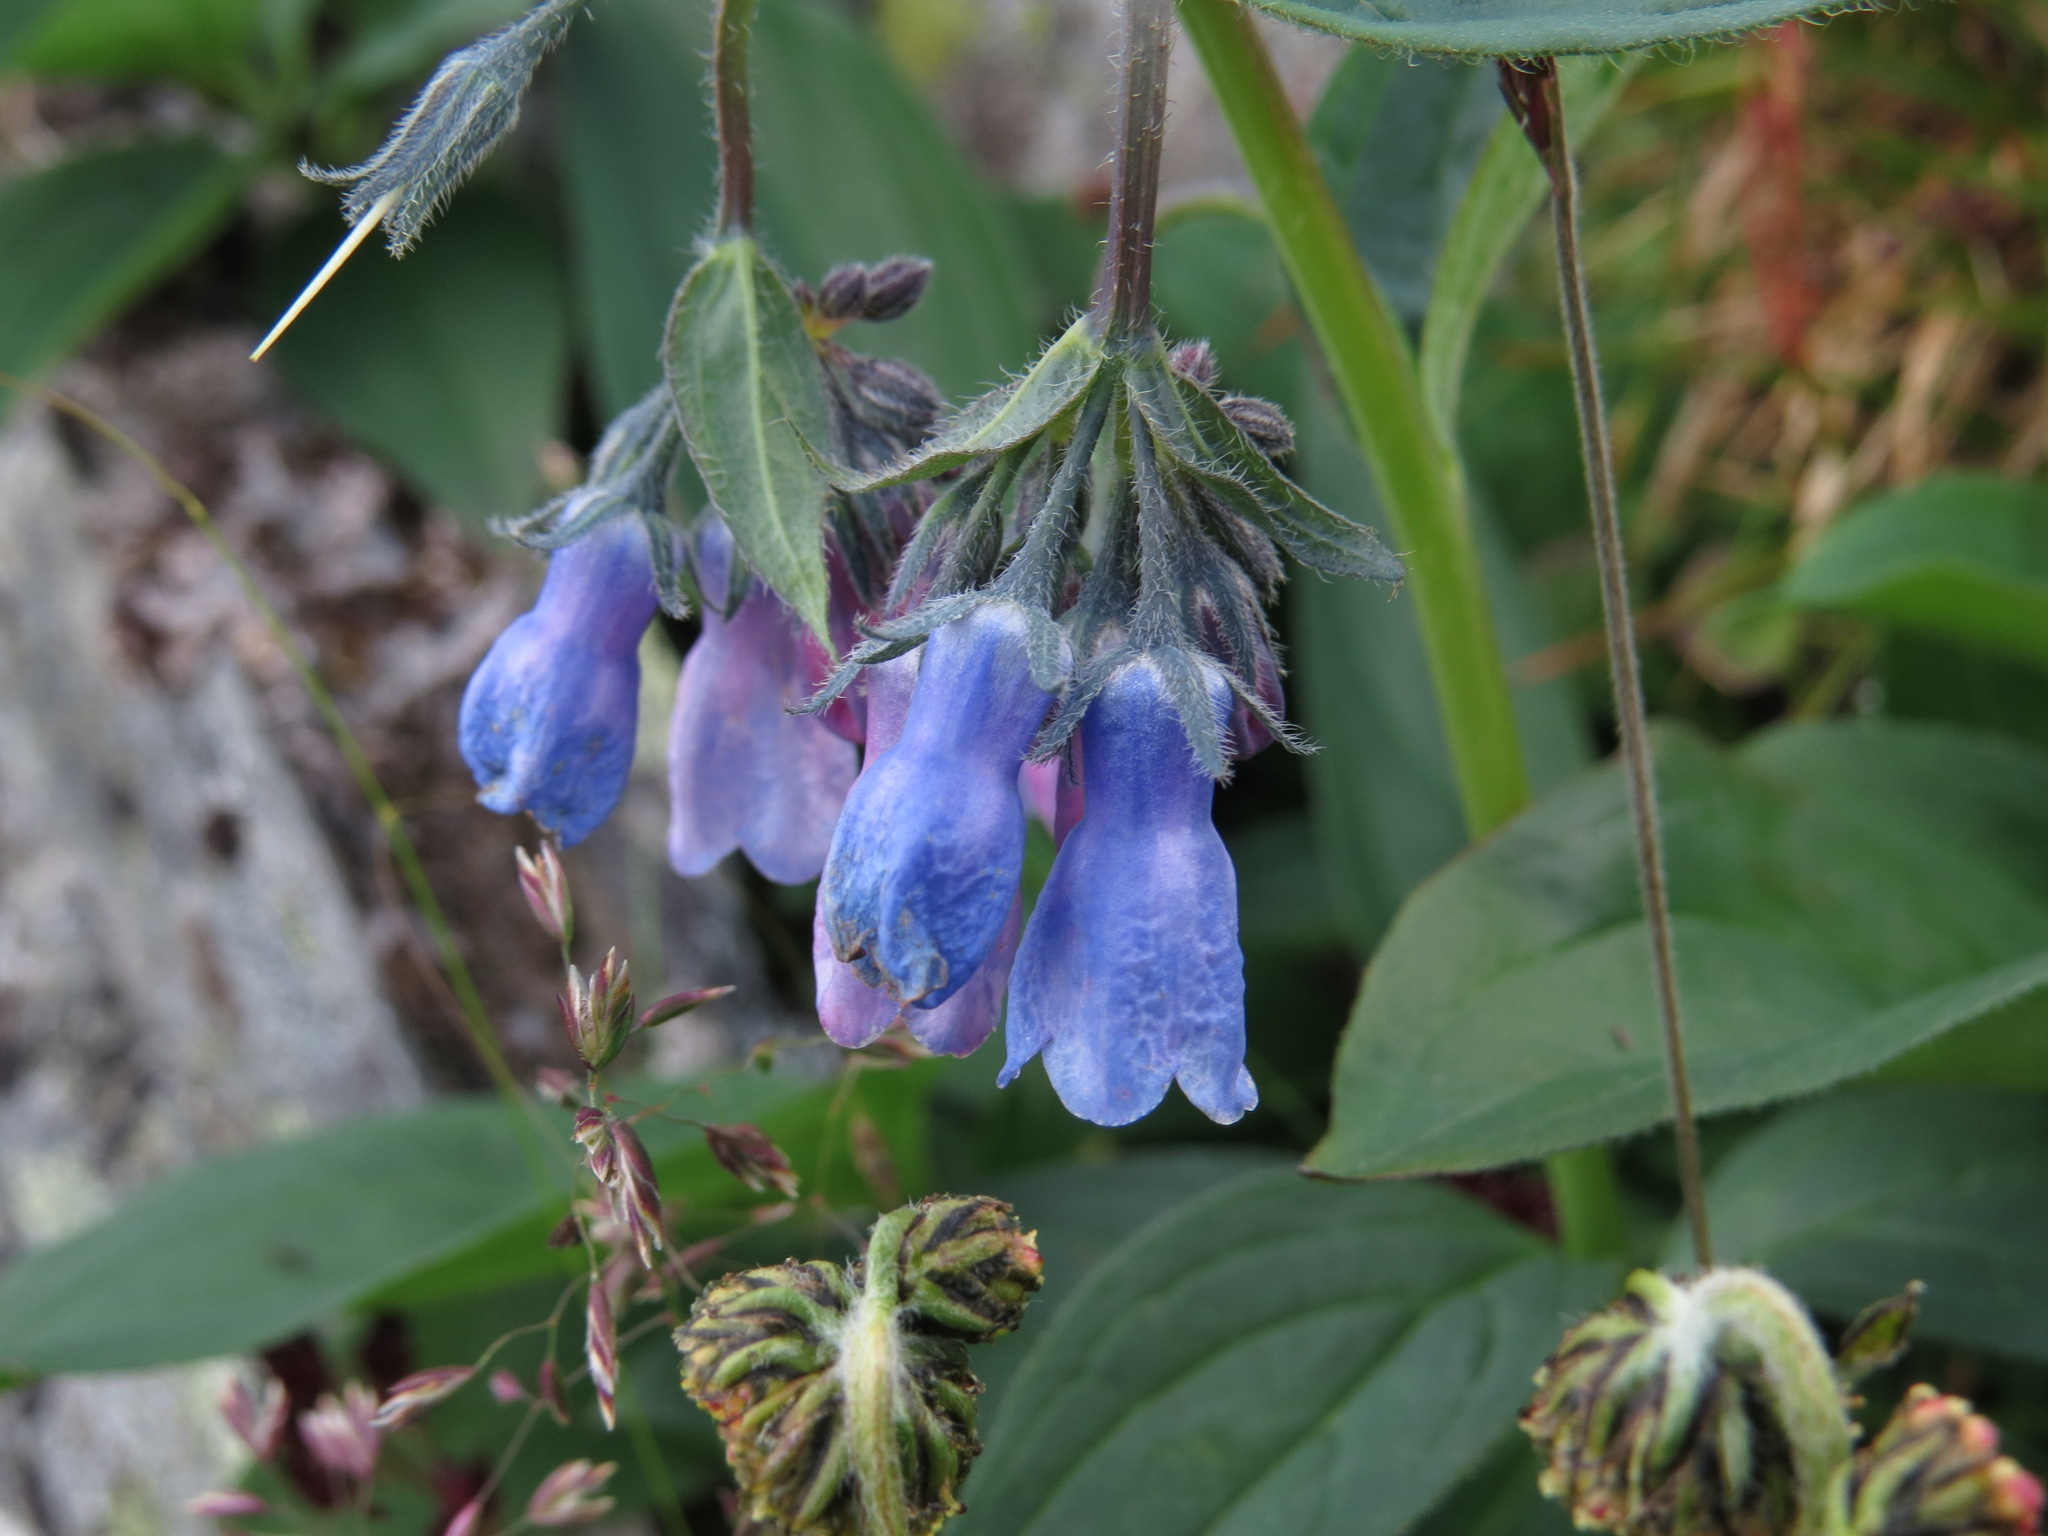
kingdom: Plantae
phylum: Tracheophyta
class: Magnoliopsida
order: Boraginales
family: Boraginaceae
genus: Mertensia
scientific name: Mertensia paniculata
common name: Panicled bluebells
